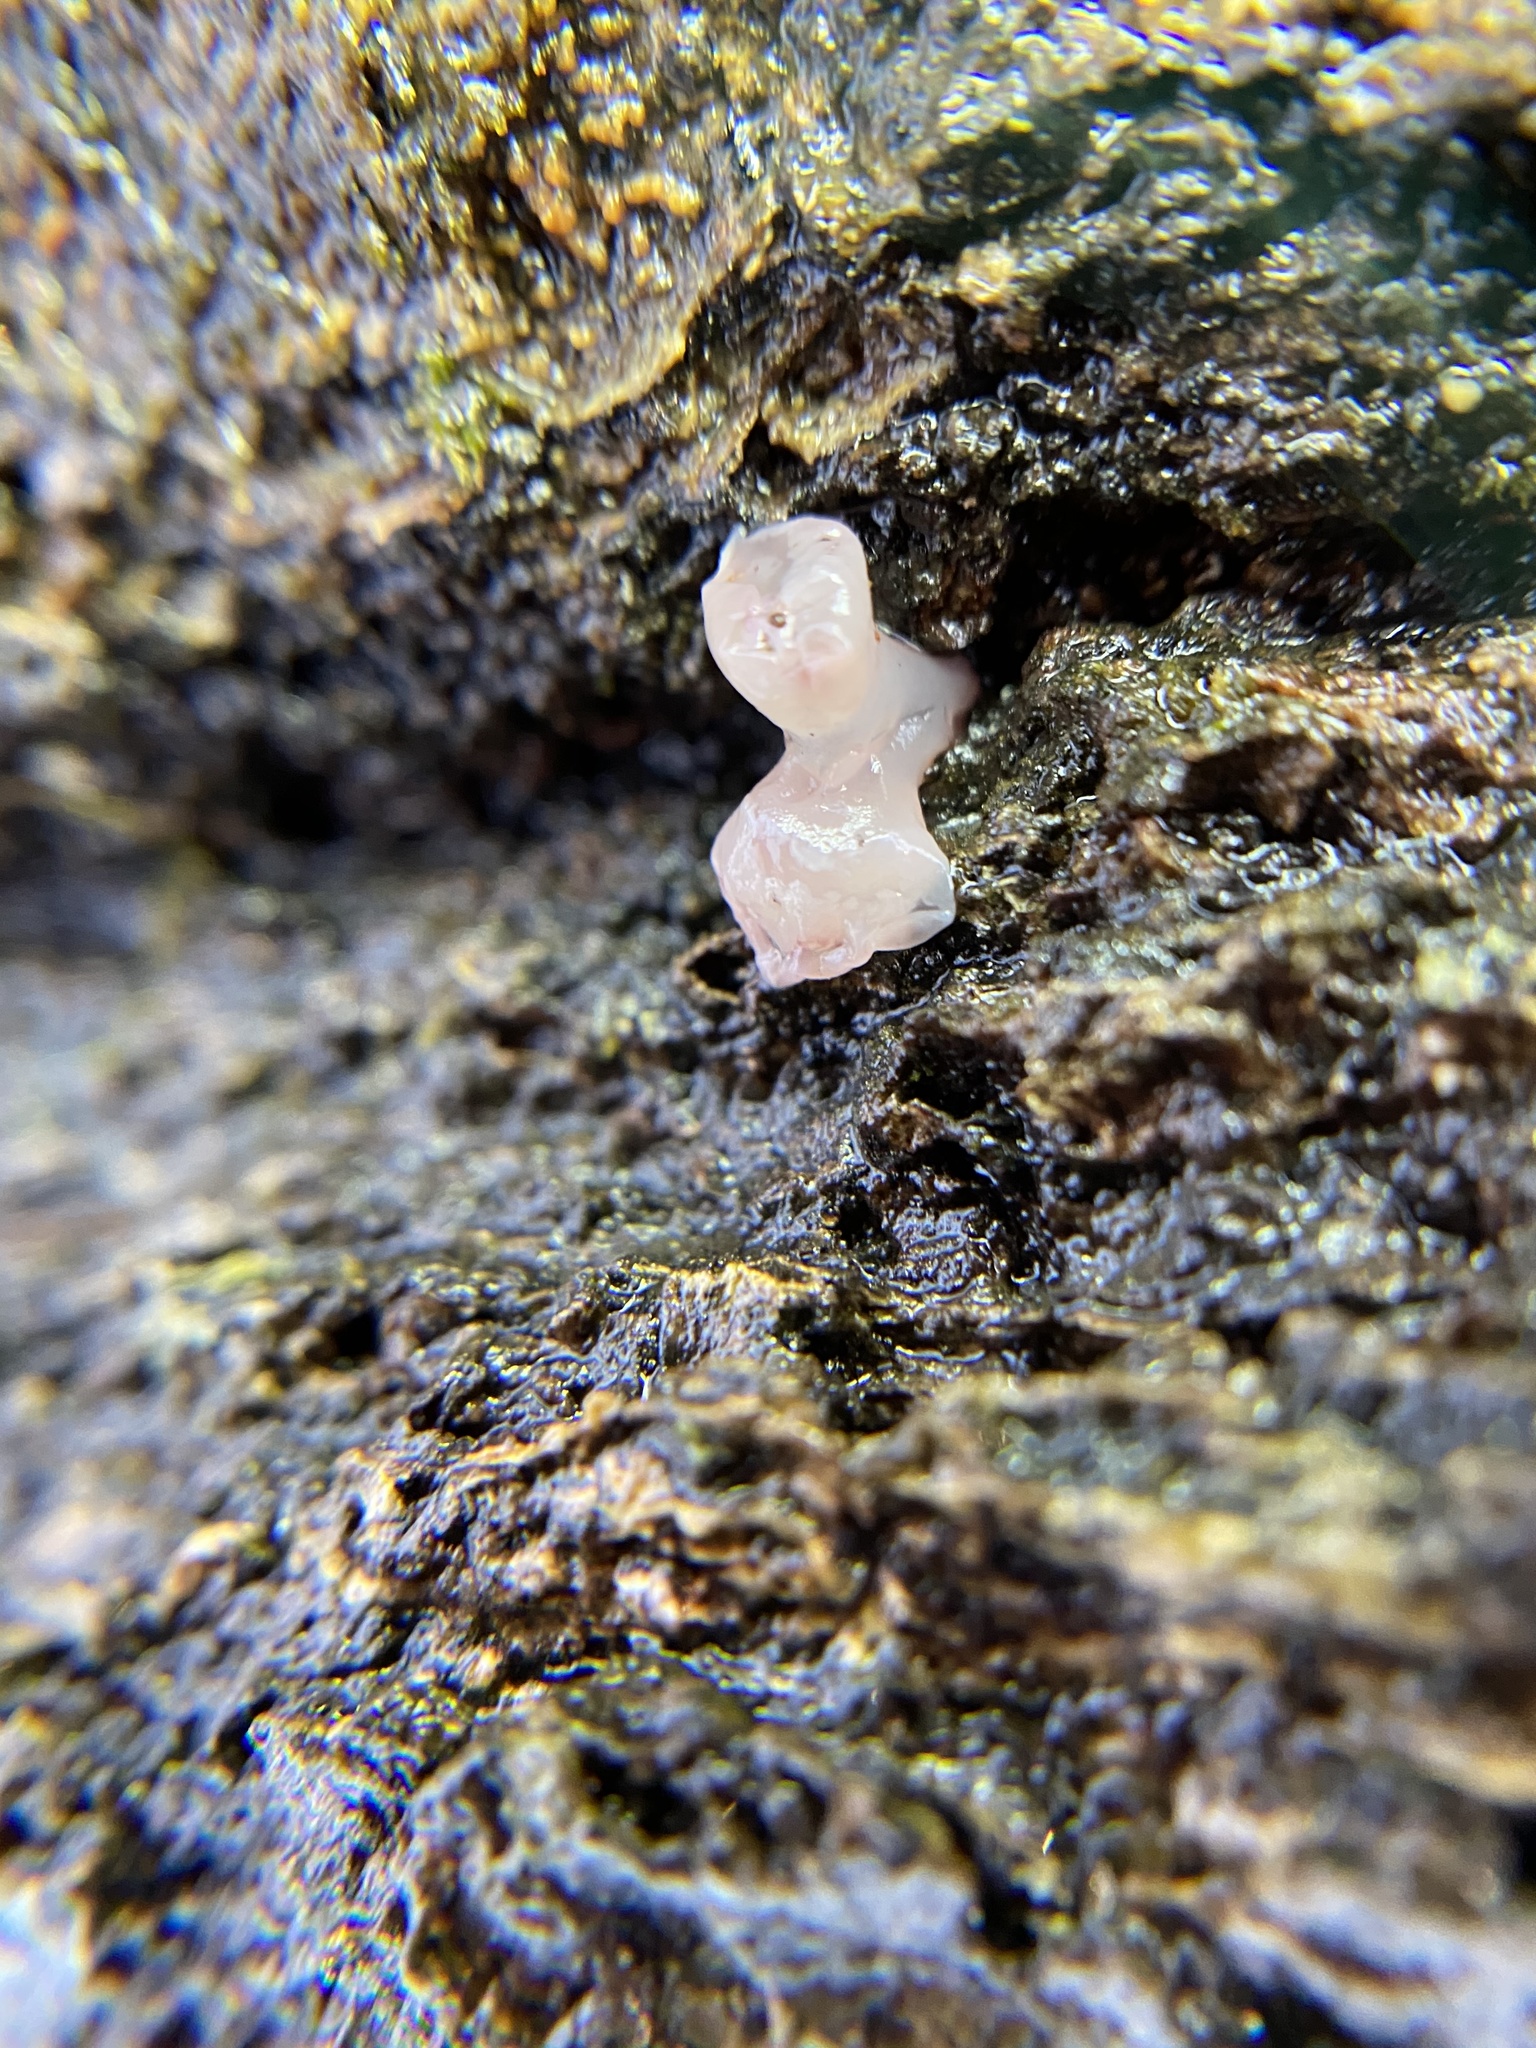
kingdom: Fungi
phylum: Ascomycota
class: Leotiomycetes
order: Helotiales
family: Gelatinodiscaceae
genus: Ascocoryne
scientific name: Ascocoryne sarcoides
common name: Purple jellydisc
